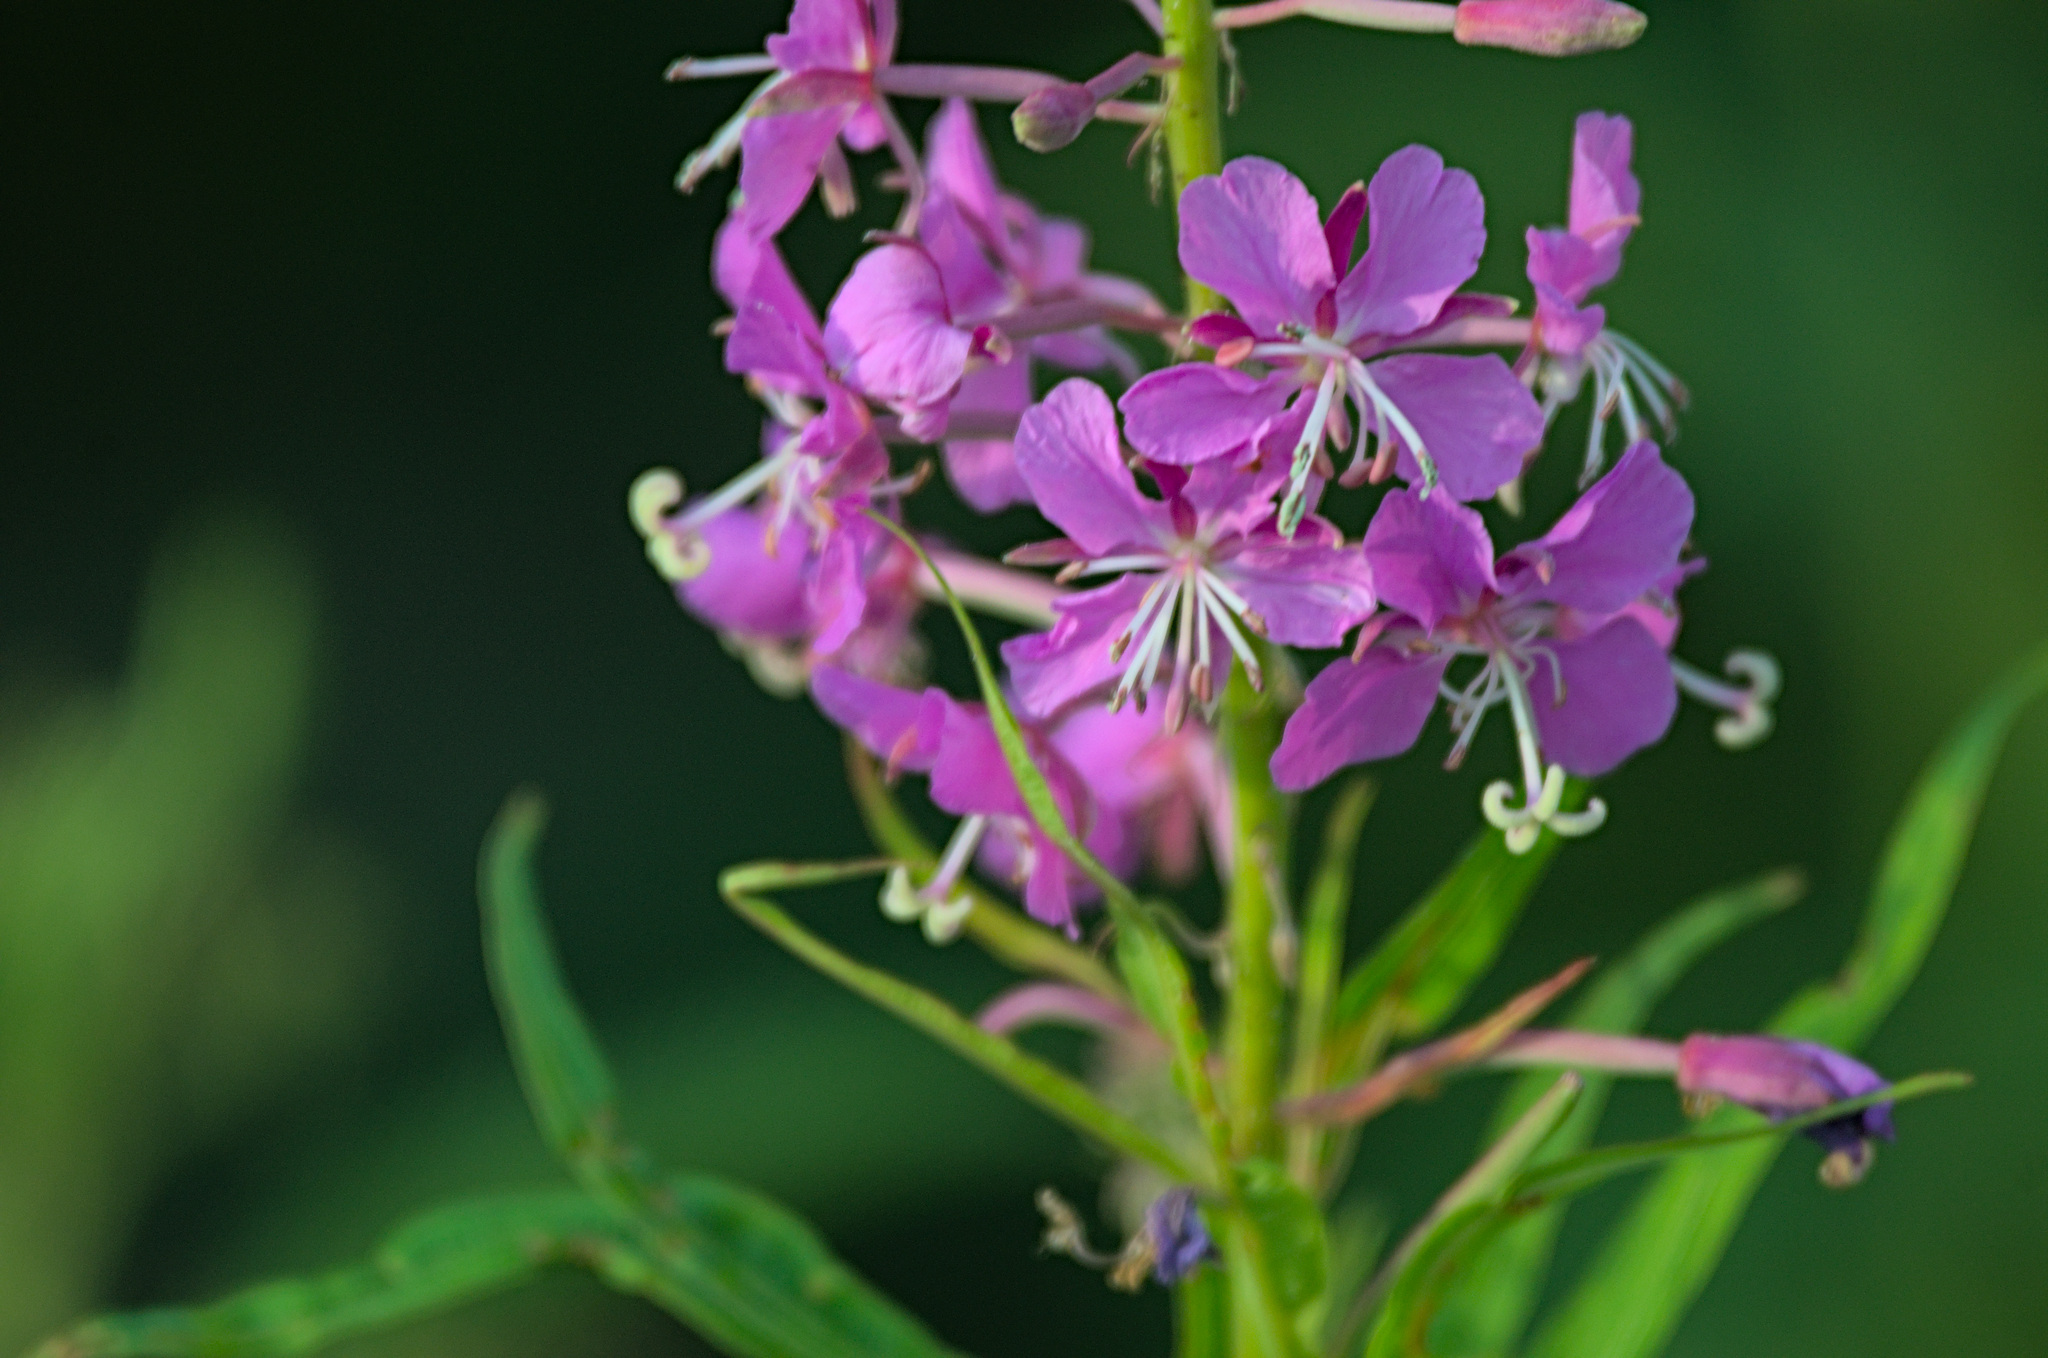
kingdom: Plantae
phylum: Tracheophyta
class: Magnoliopsida
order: Myrtales
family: Onagraceae
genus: Chamaenerion
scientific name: Chamaenerion angustifolium
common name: Fireweed
